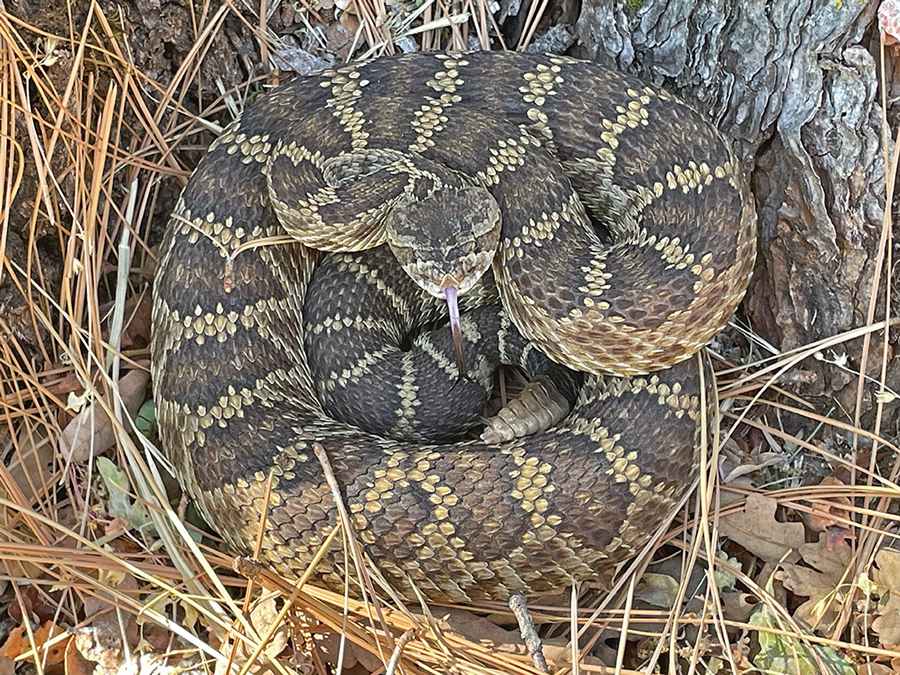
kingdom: Animalia
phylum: Chordata
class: Squamata
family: Viperidae
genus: Crotalus
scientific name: Crotalus oreganus
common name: Abyssus
